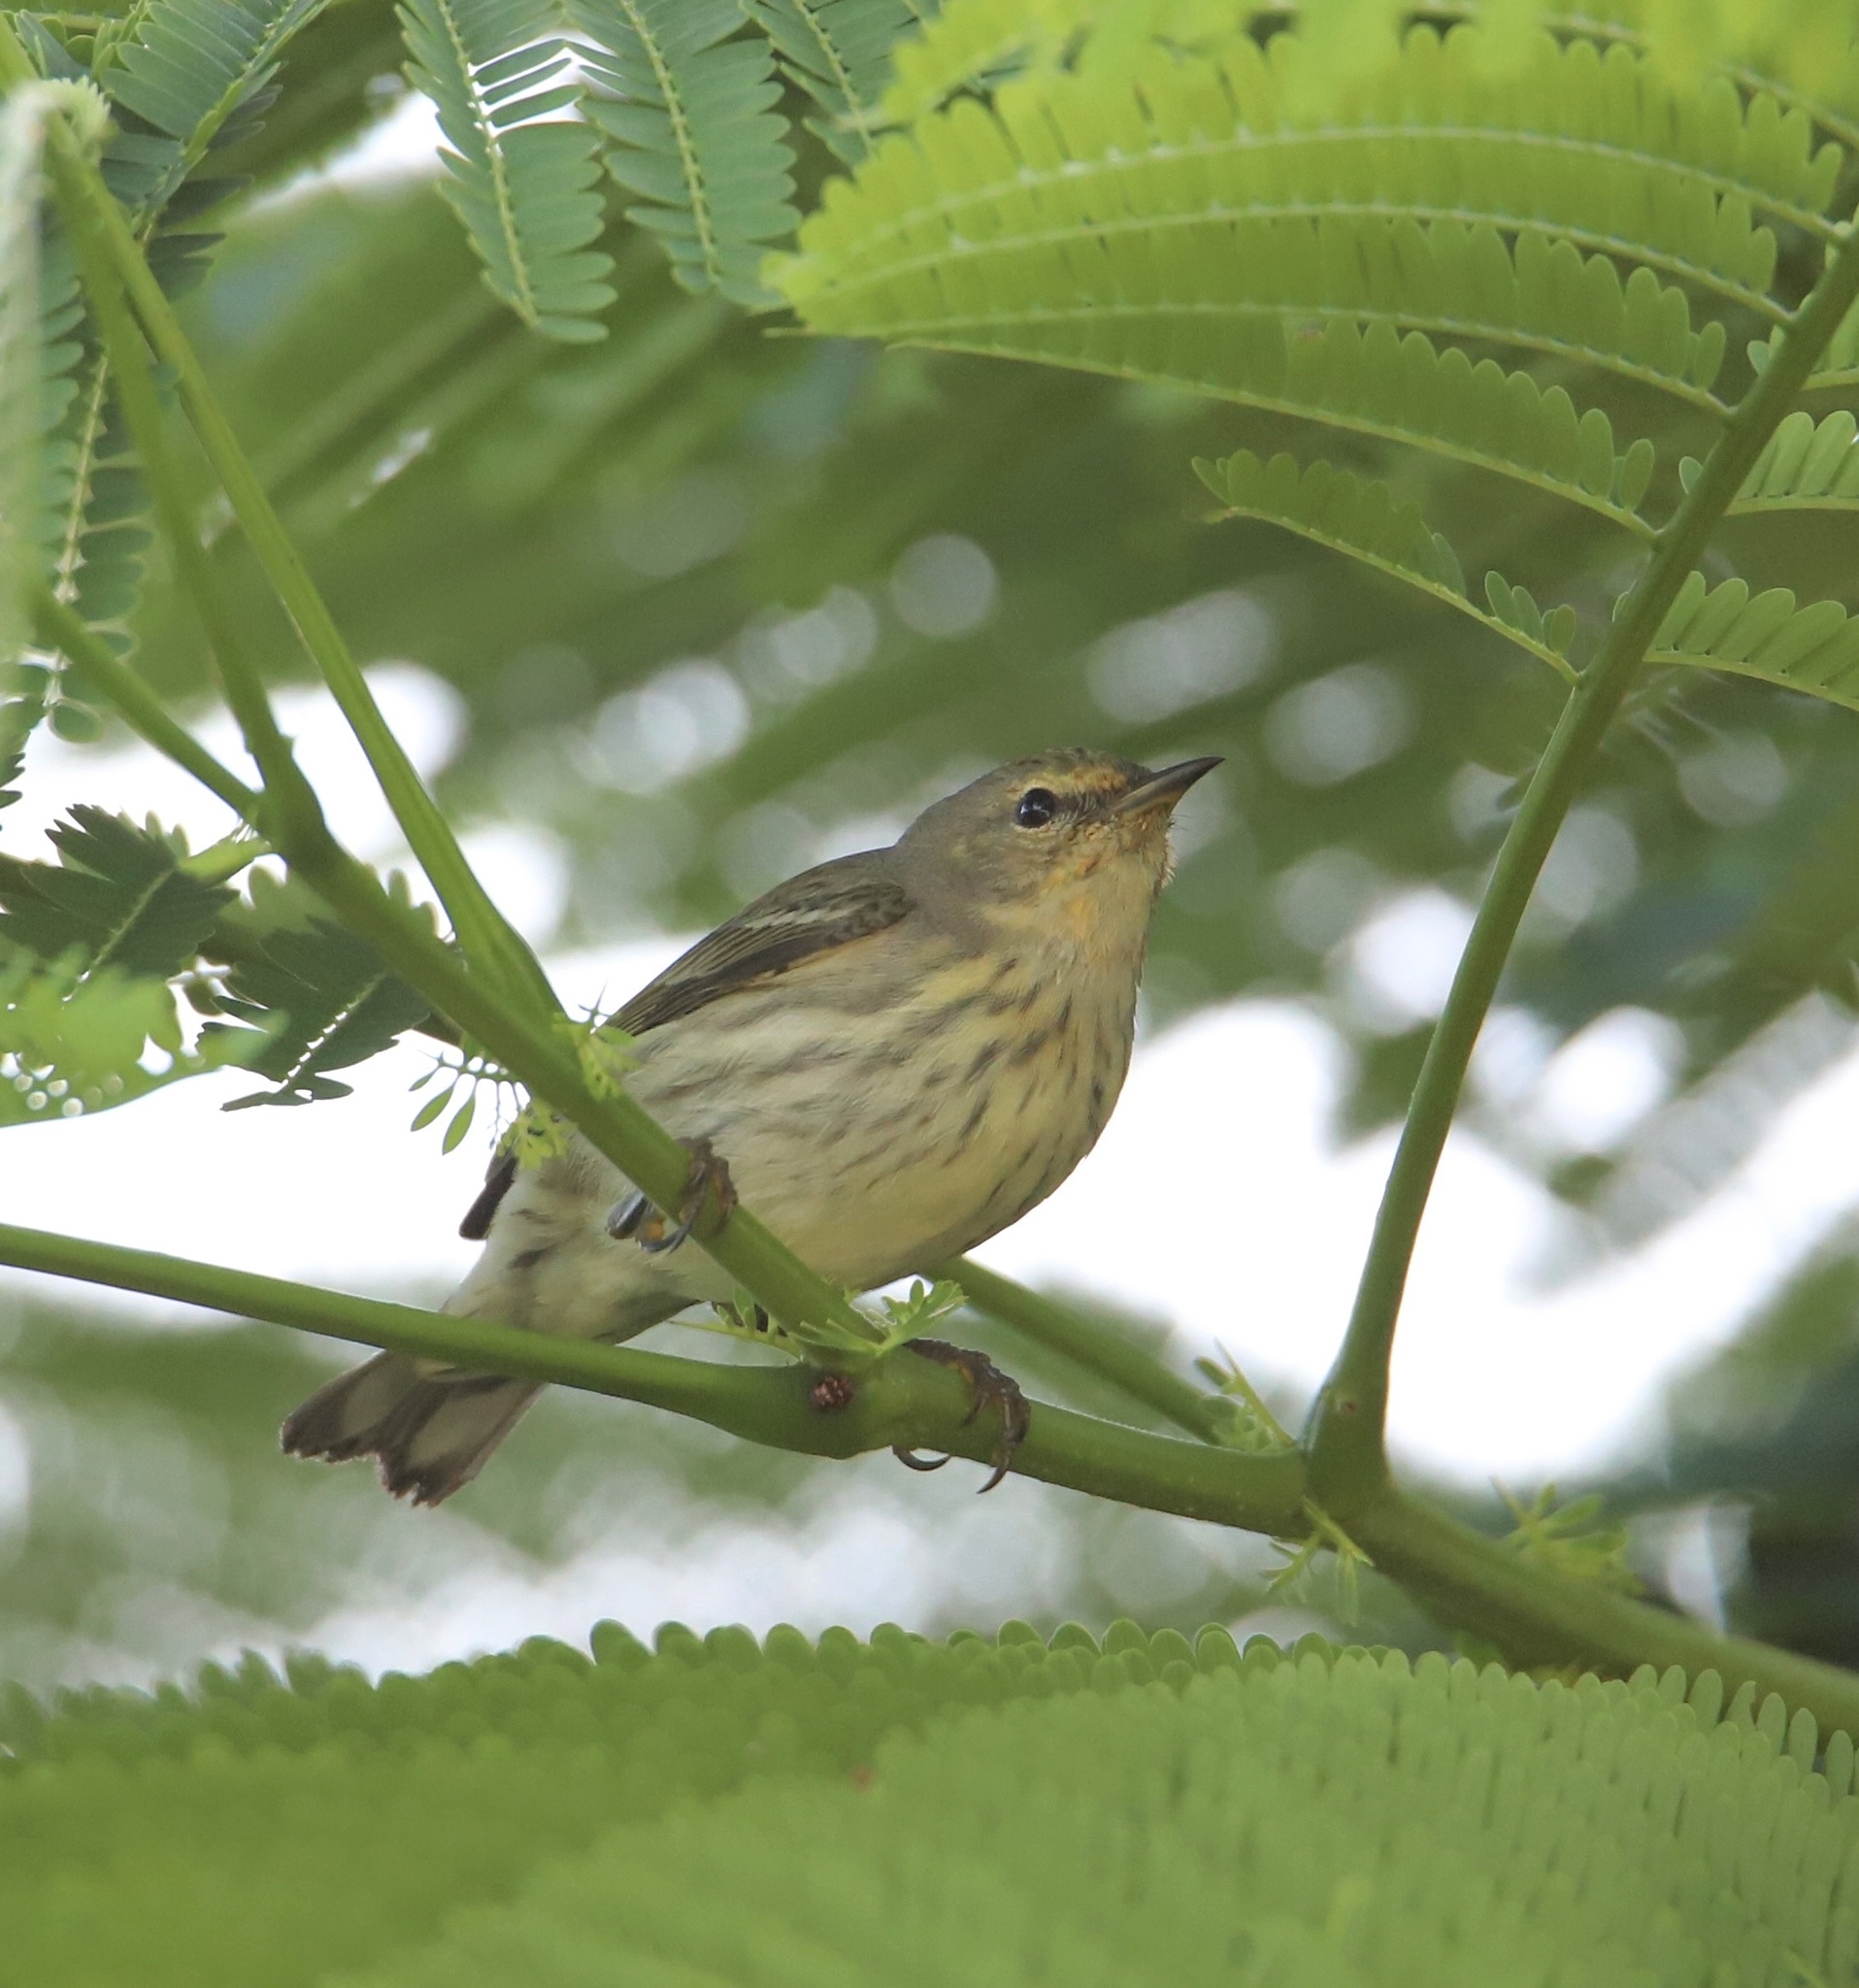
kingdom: Animalia
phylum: Chordata
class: Aves
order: Passeriformes
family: Parulidae
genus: Setophaga
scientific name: Setophaga tigrina
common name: Cape may warbler
